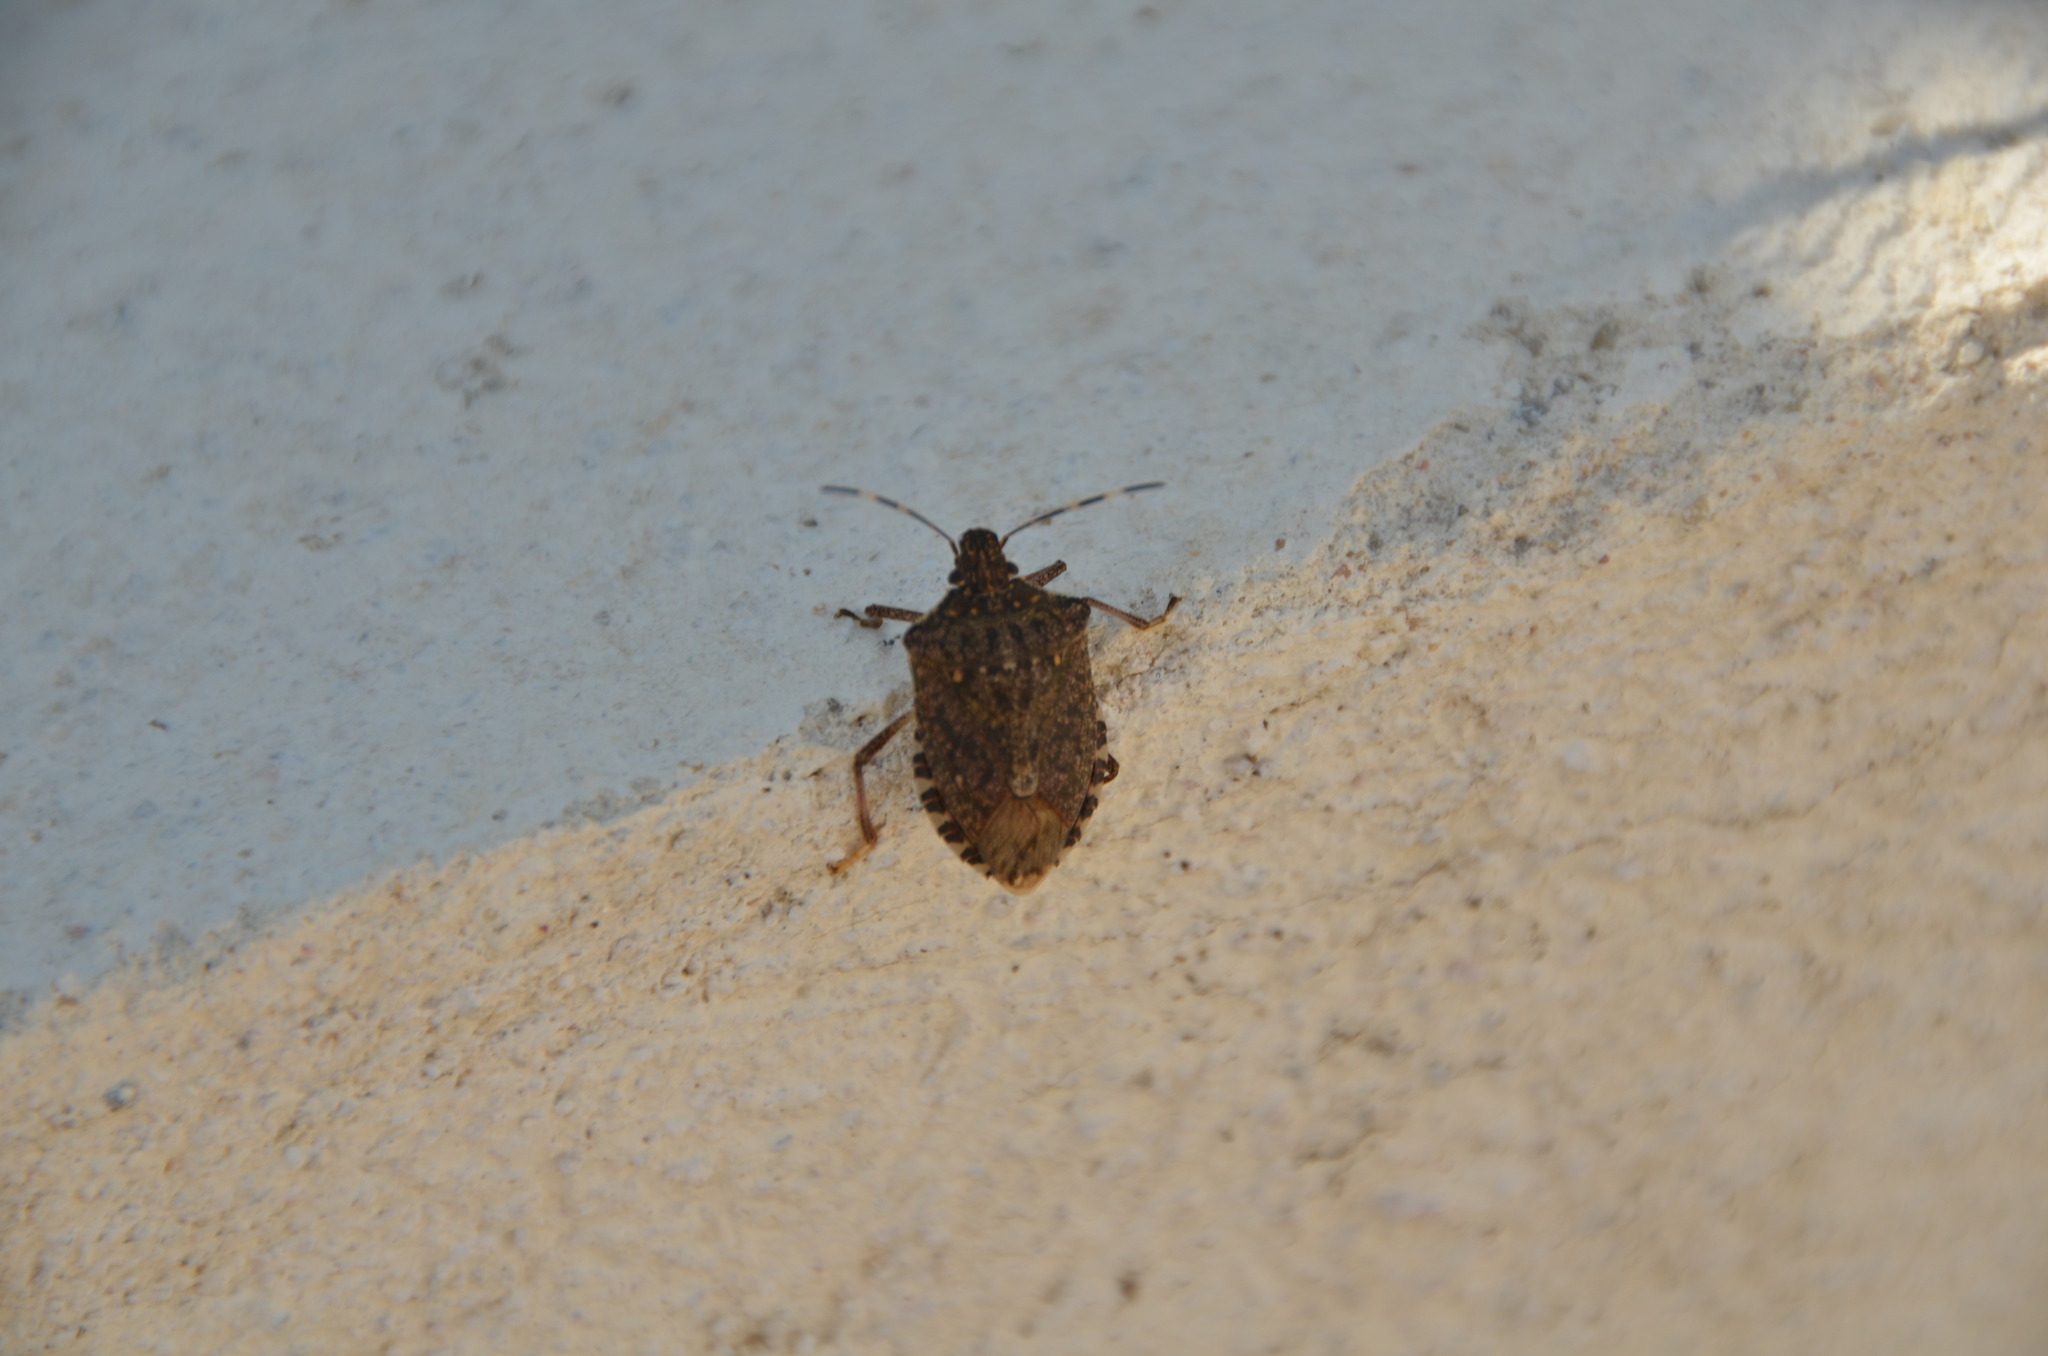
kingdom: Animalia
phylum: Arthropoda
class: Insecta
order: Hemiptera
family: Pentatomidae
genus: Halyomorpha
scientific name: Halyomorpha halys
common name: Brown marmorated stink bug
